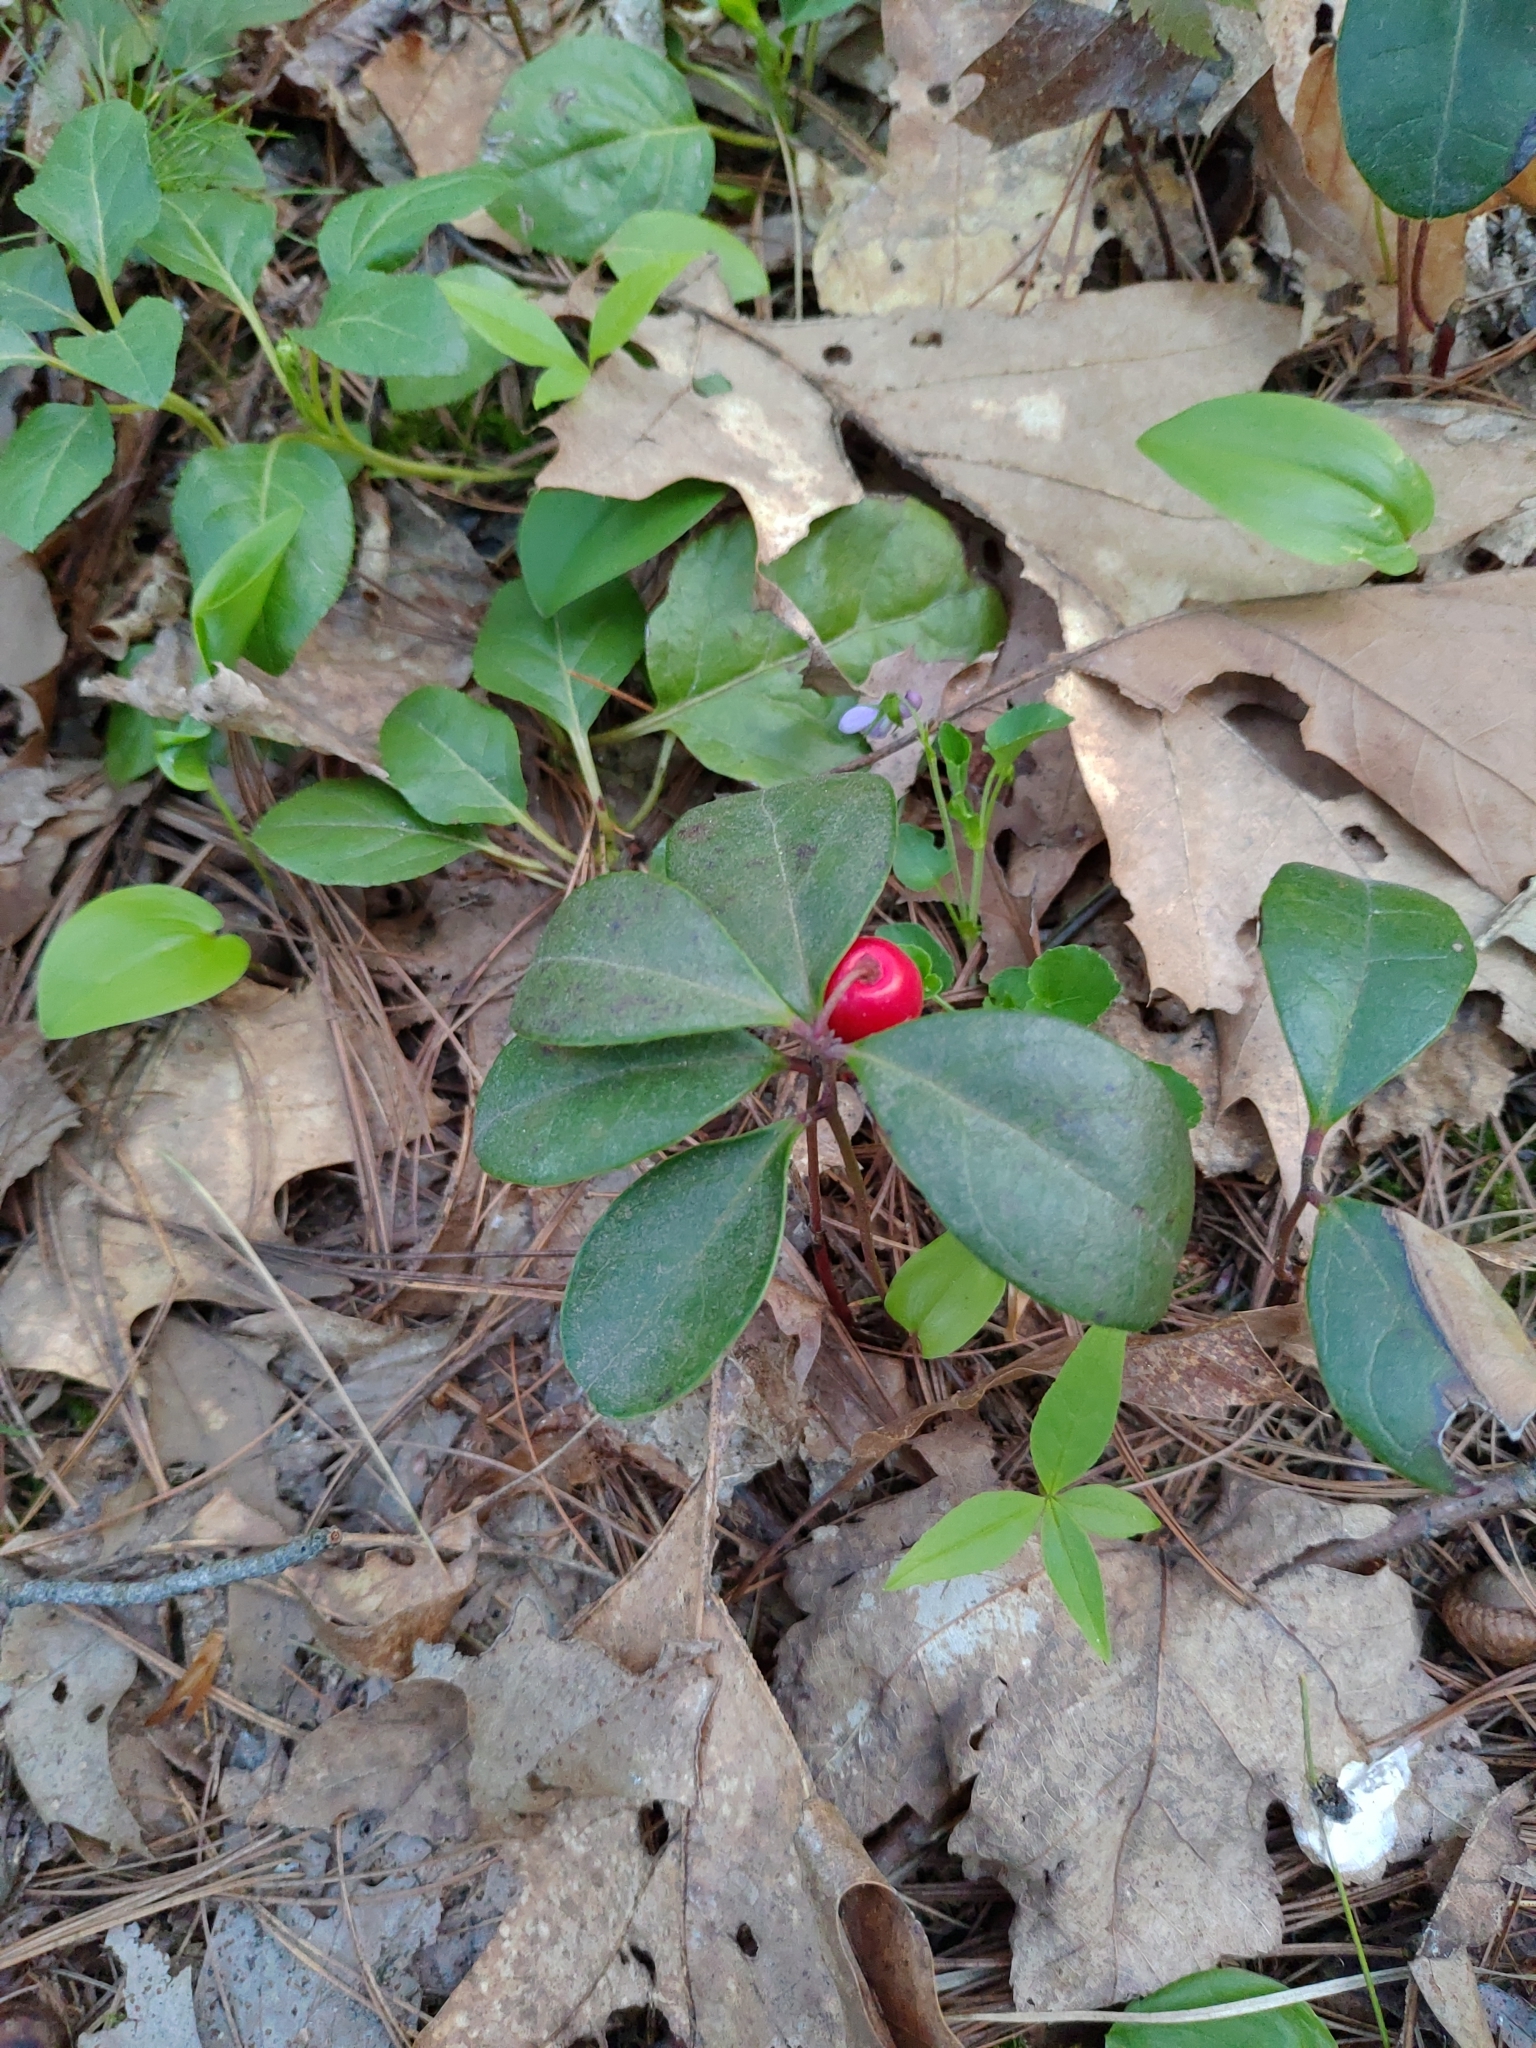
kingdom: Plantae
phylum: Tracheophyta
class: Magnoliopsida
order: Ericales
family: Ericaceae
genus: Gaultheria
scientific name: Gaultheria procumbens
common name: Checkerberry
